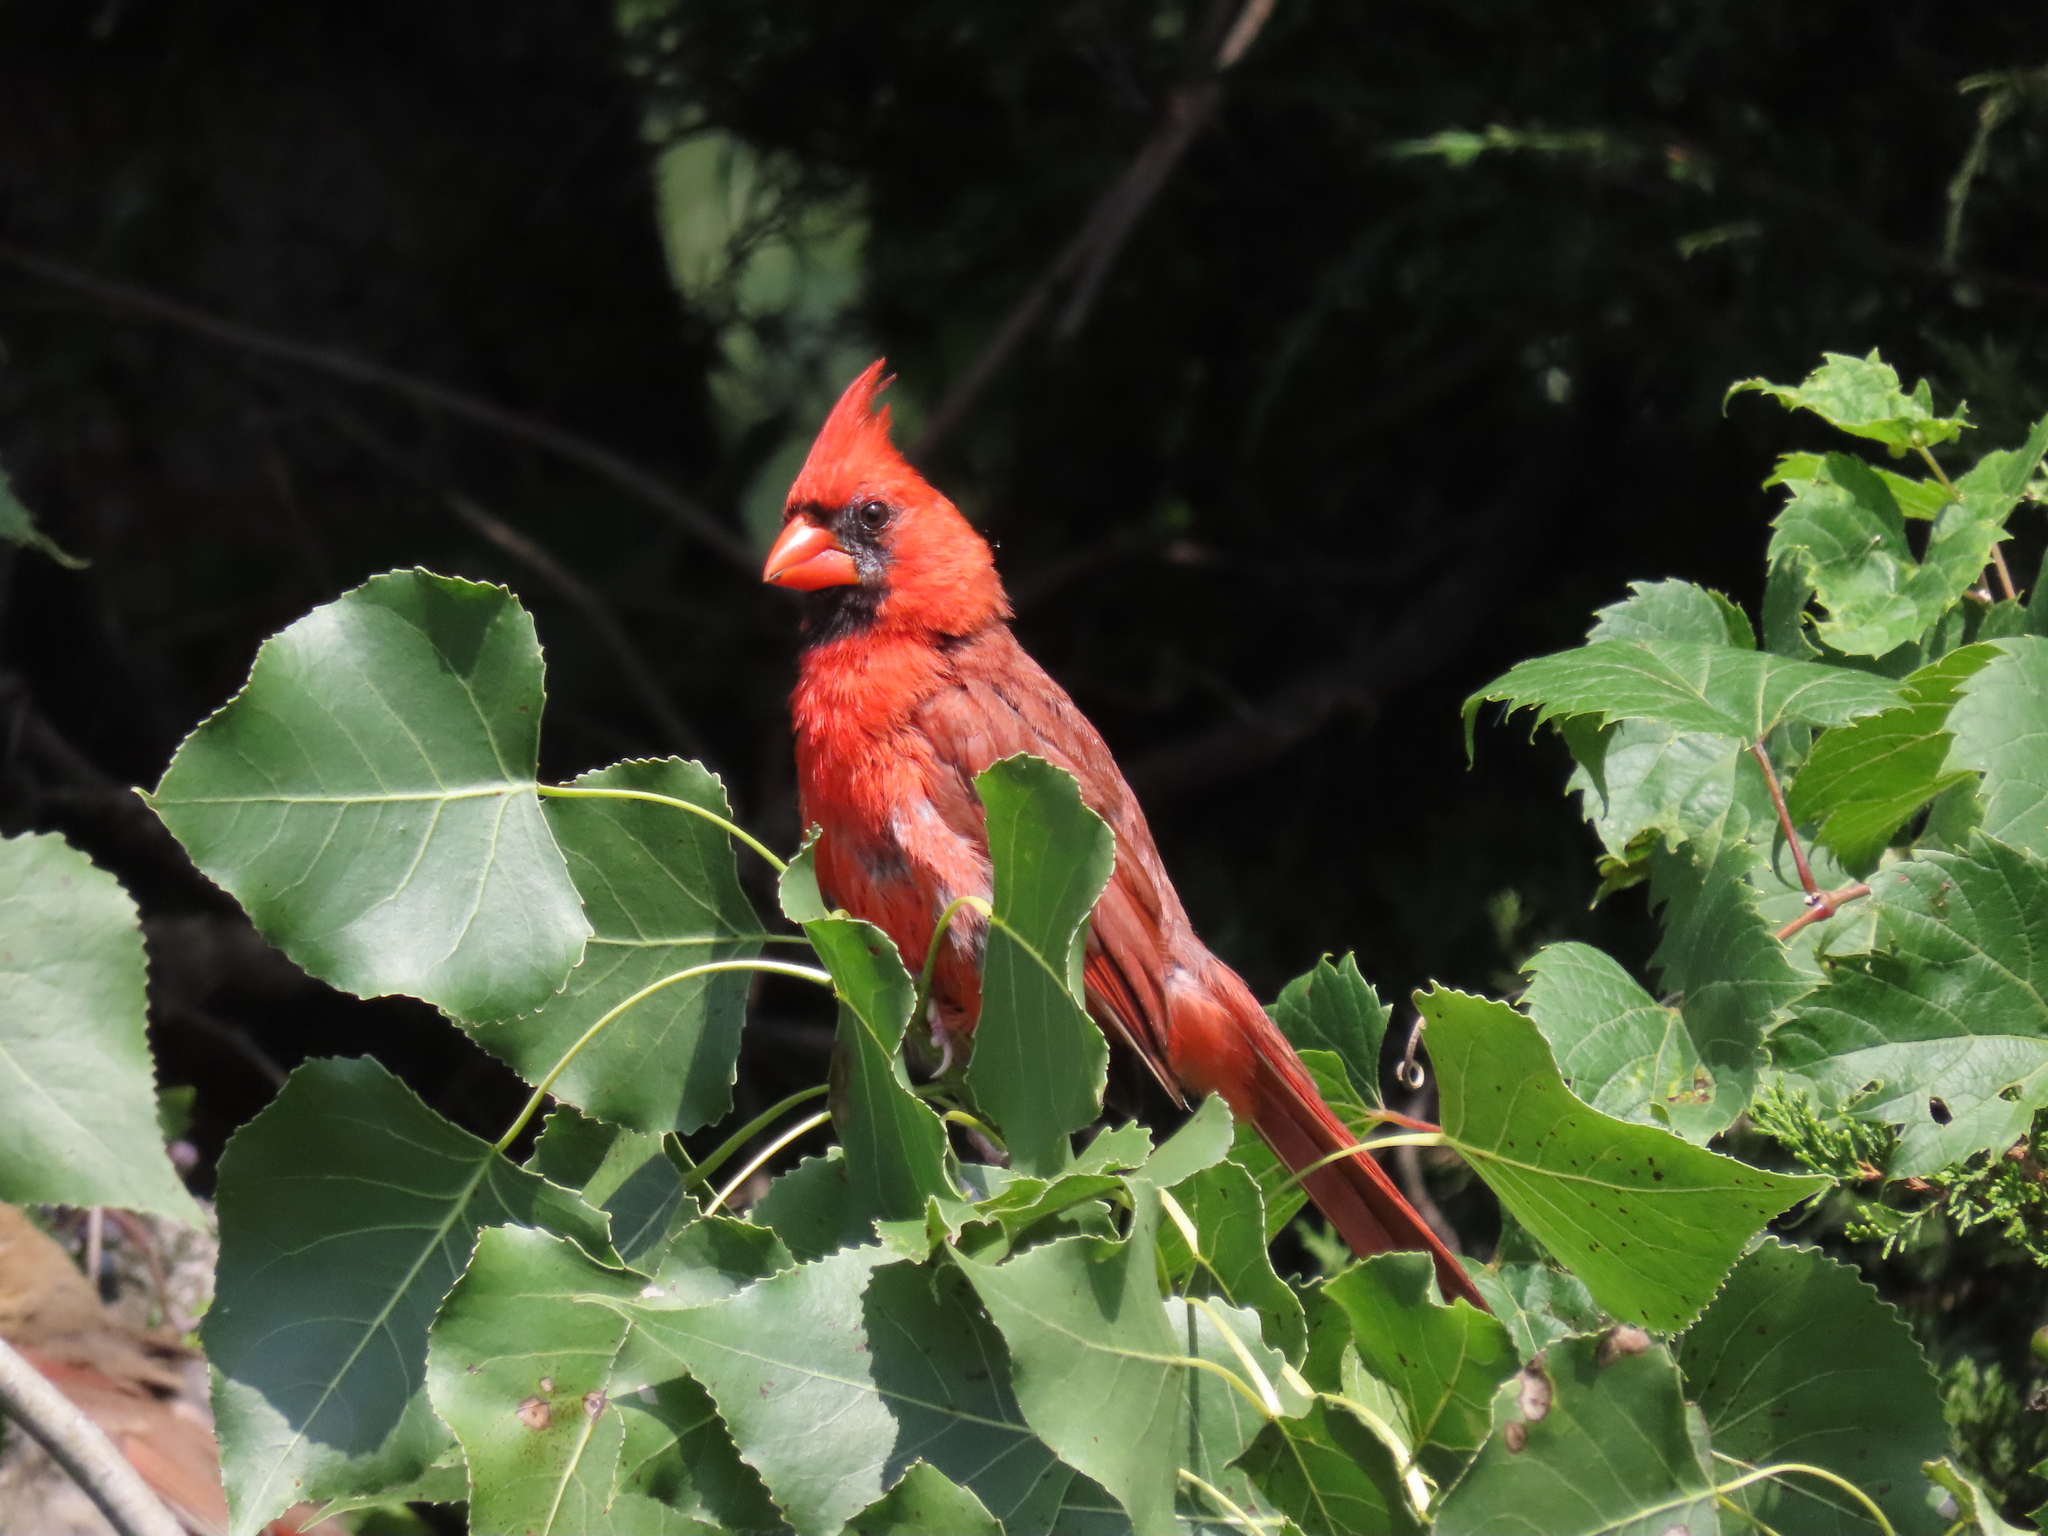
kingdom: Animalia
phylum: Chordata
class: Aves
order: Passeriformes
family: Cardinalidae
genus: Cardinalis
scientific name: Cardinalis cardinalis
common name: Northern cardinal
